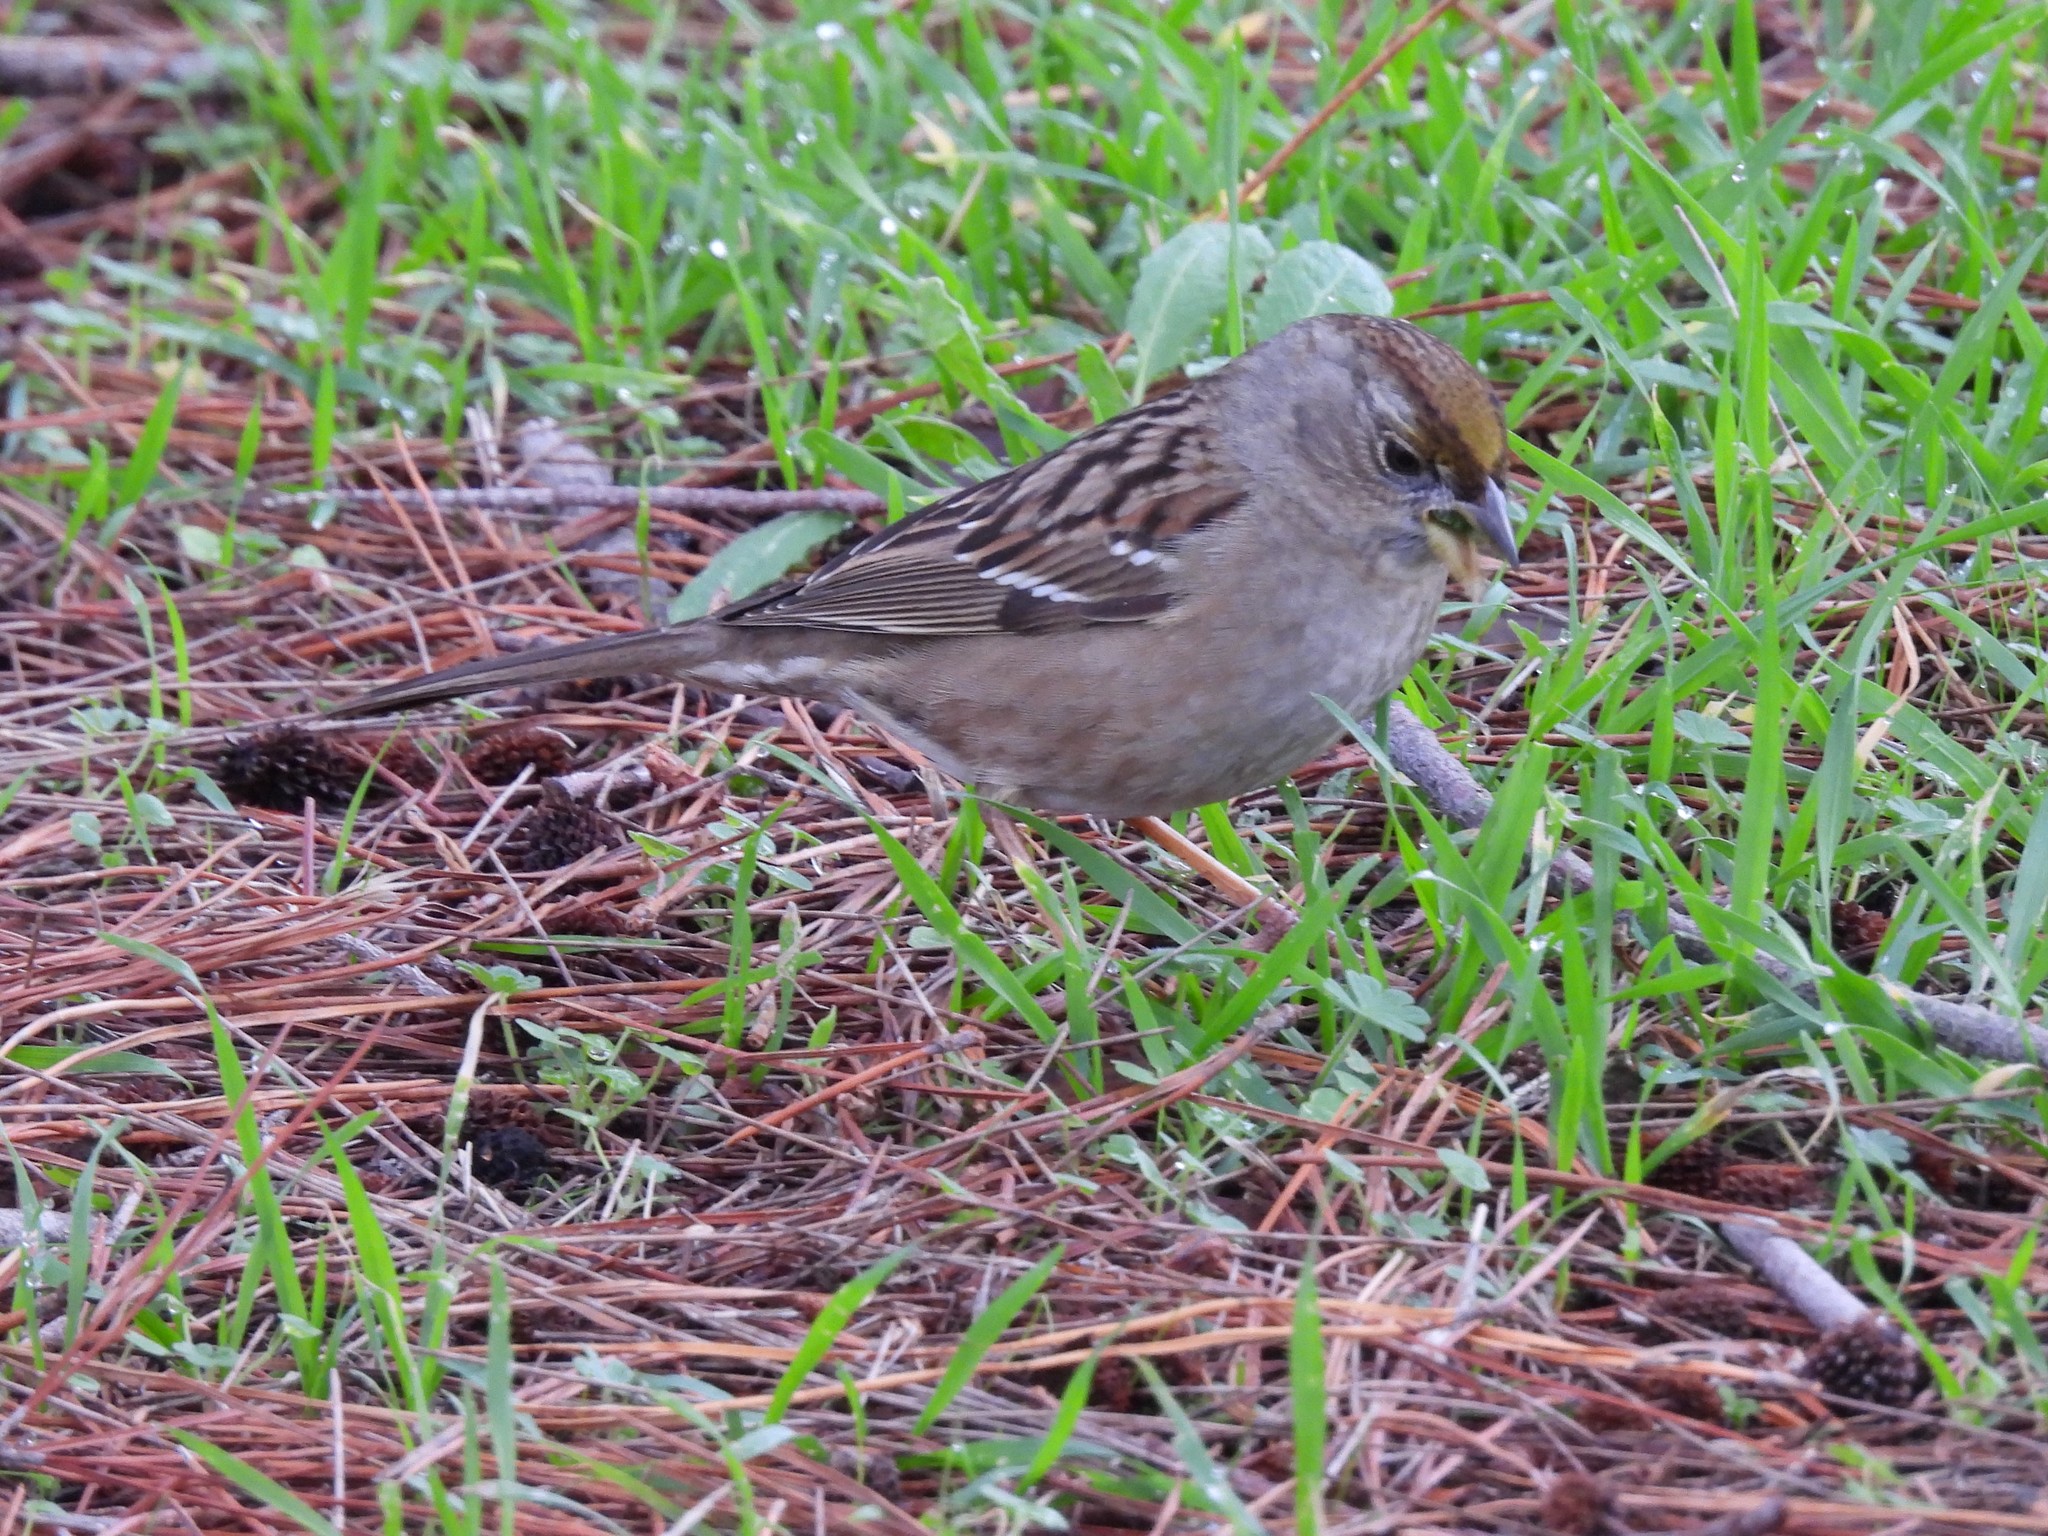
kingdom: Animalia
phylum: Chordata
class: Aves
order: Passeriformes
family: Passerellidae
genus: Zonotrichia
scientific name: Zonotrichia atricapilla
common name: Golden-crowned sparrow
